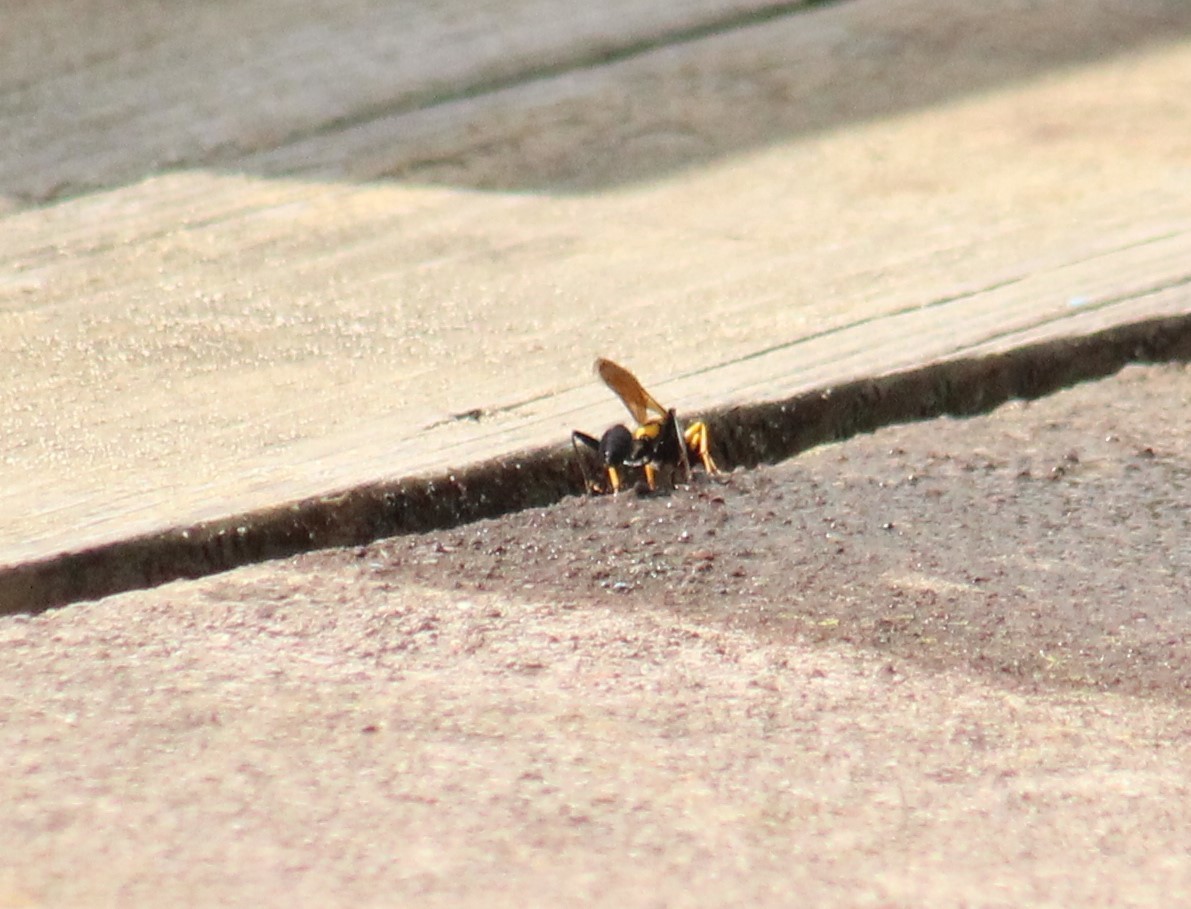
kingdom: Animalia
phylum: Arthropoda
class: Insecta
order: Hymenoptera
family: Sphecidae
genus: Sceliphron
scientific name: Sceliphron assimile
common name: Clayman's mud dauber
